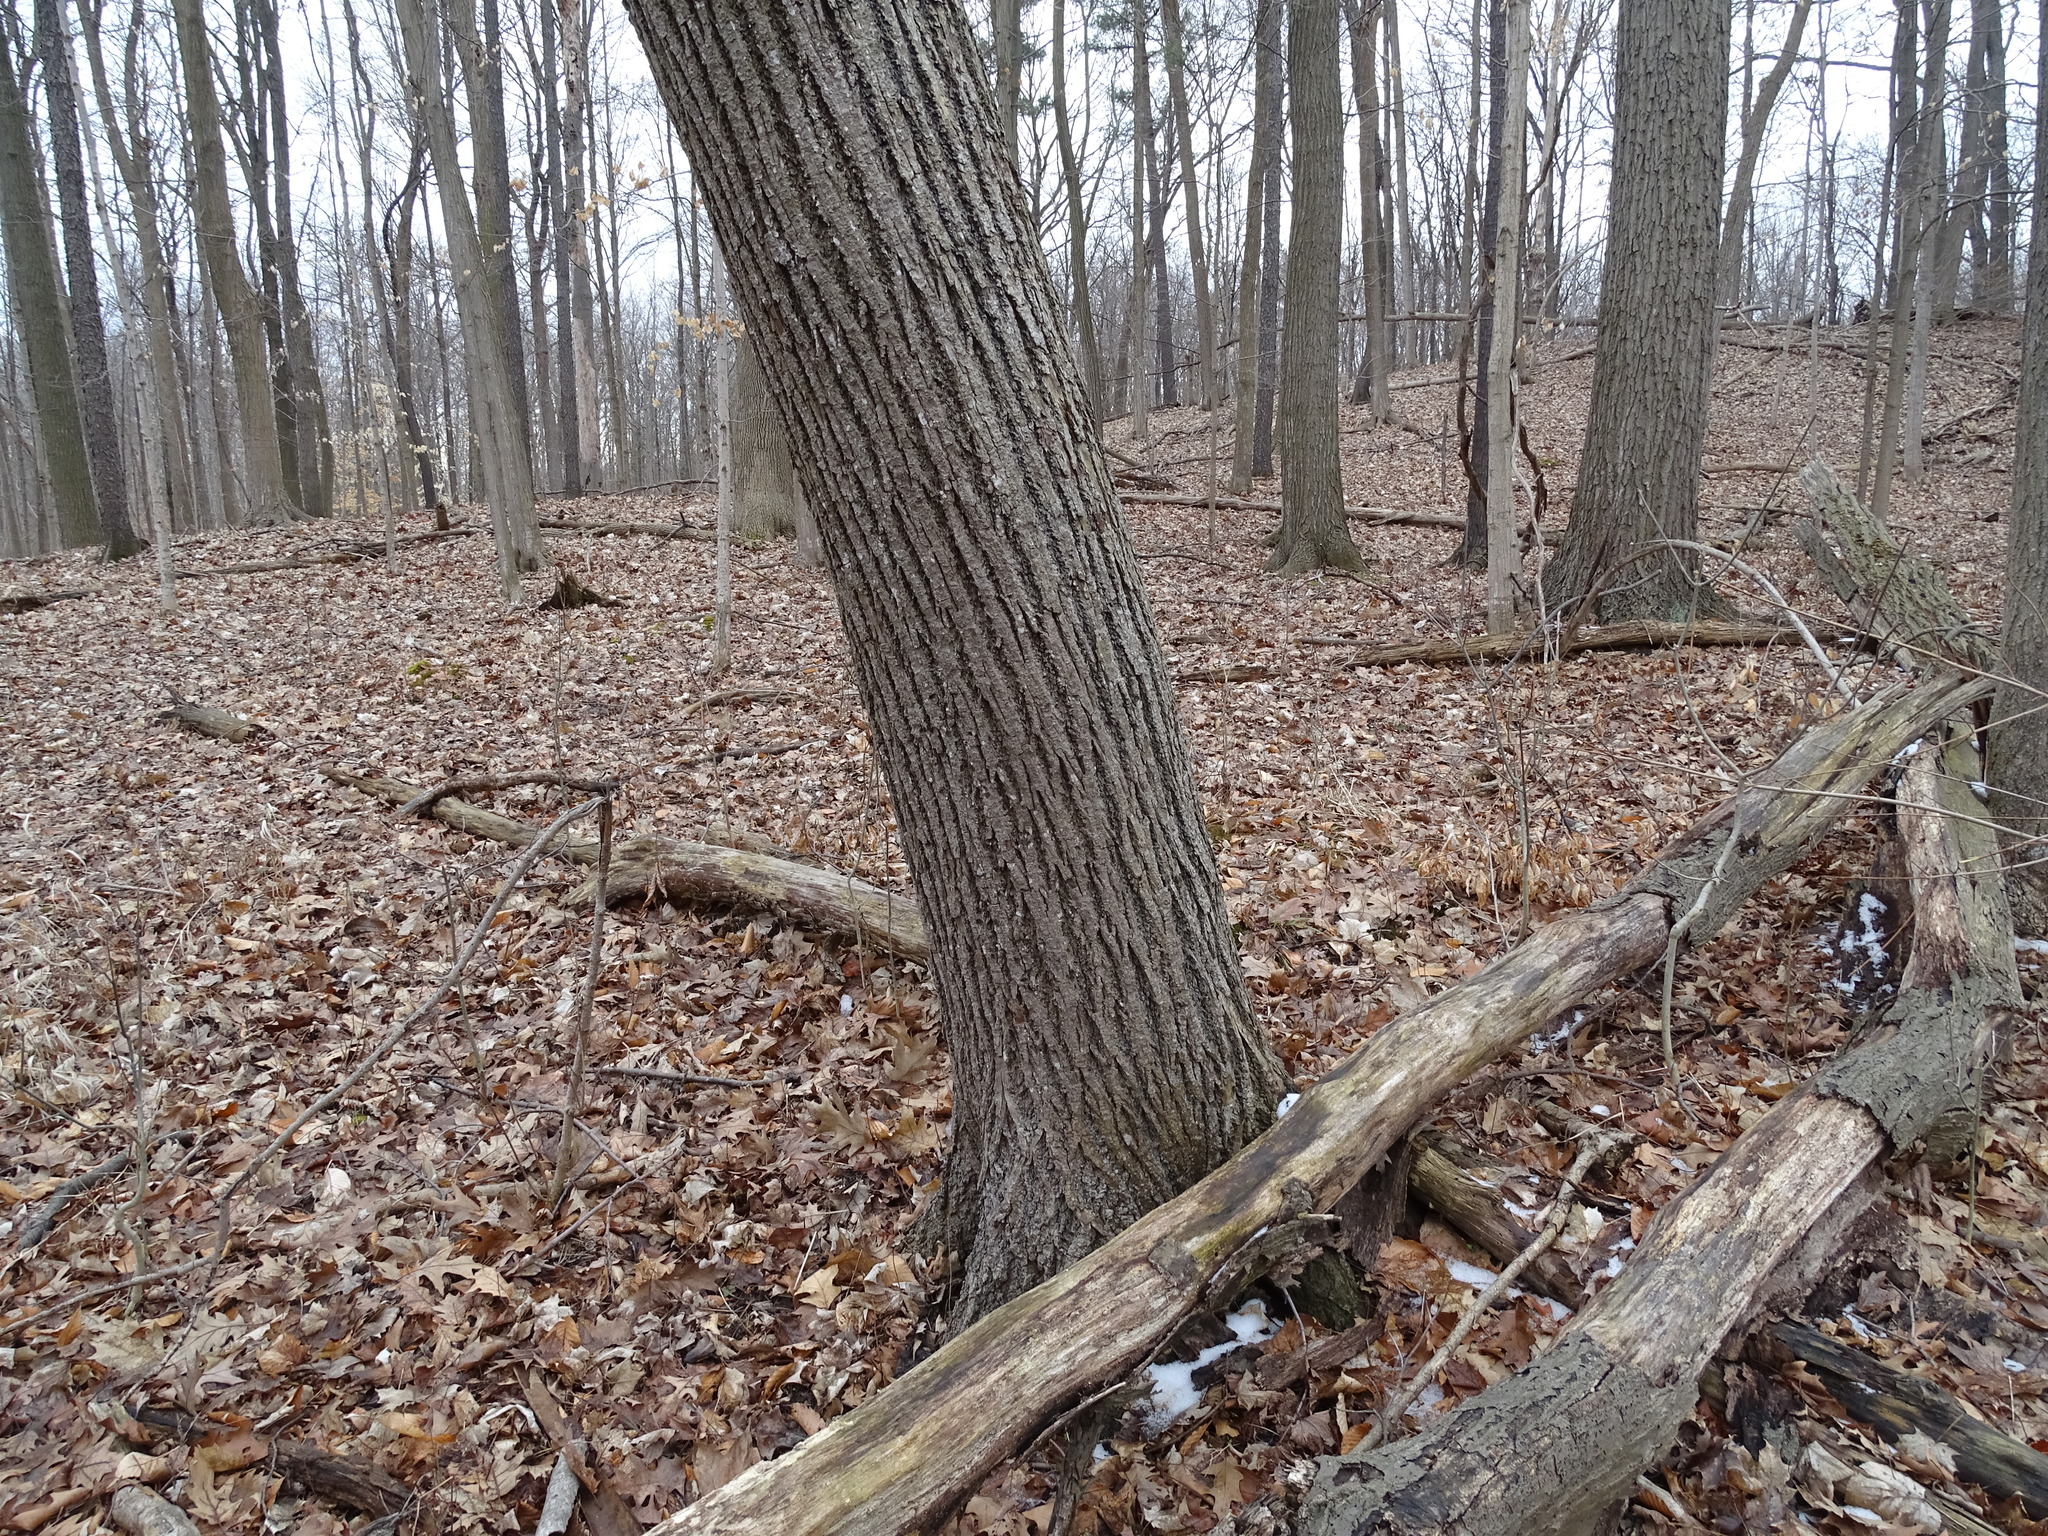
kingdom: Plantae
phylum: Tracheophyta
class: Magnoliopsida
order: Malvales
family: Malvaceae
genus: Tilia
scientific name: Tilia americana
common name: Basswood
